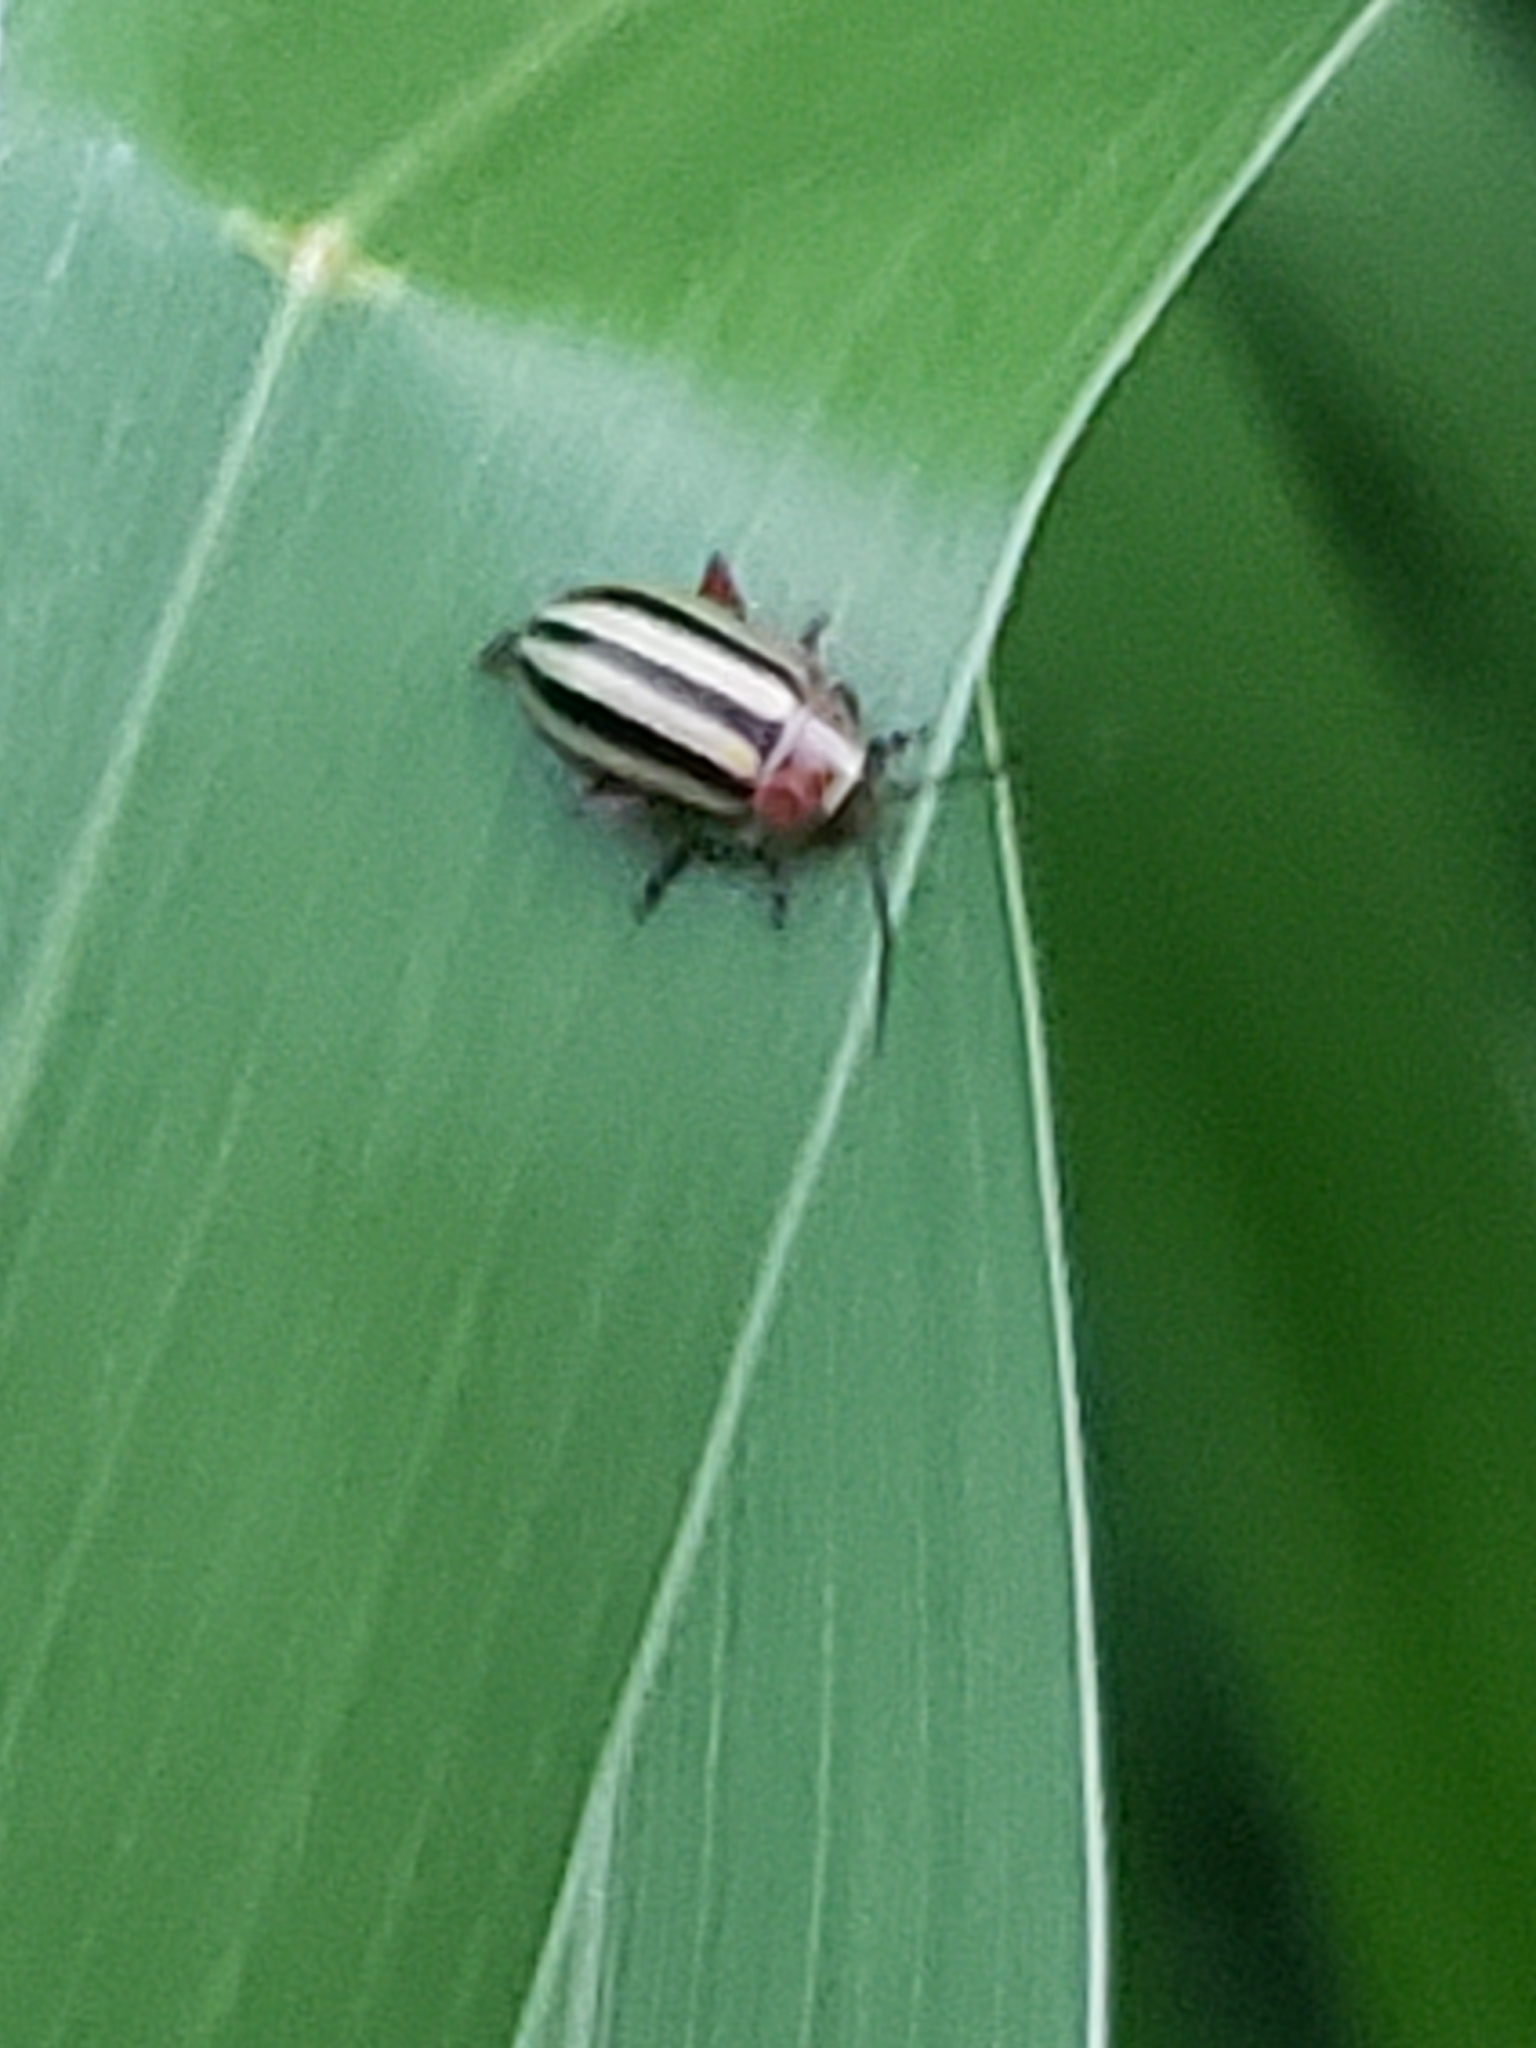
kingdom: Animalia
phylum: Arthropoda
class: Insecta
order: Coleoptera
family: Chrysomelidae
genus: Disonycha
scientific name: Disonycha admirabila
